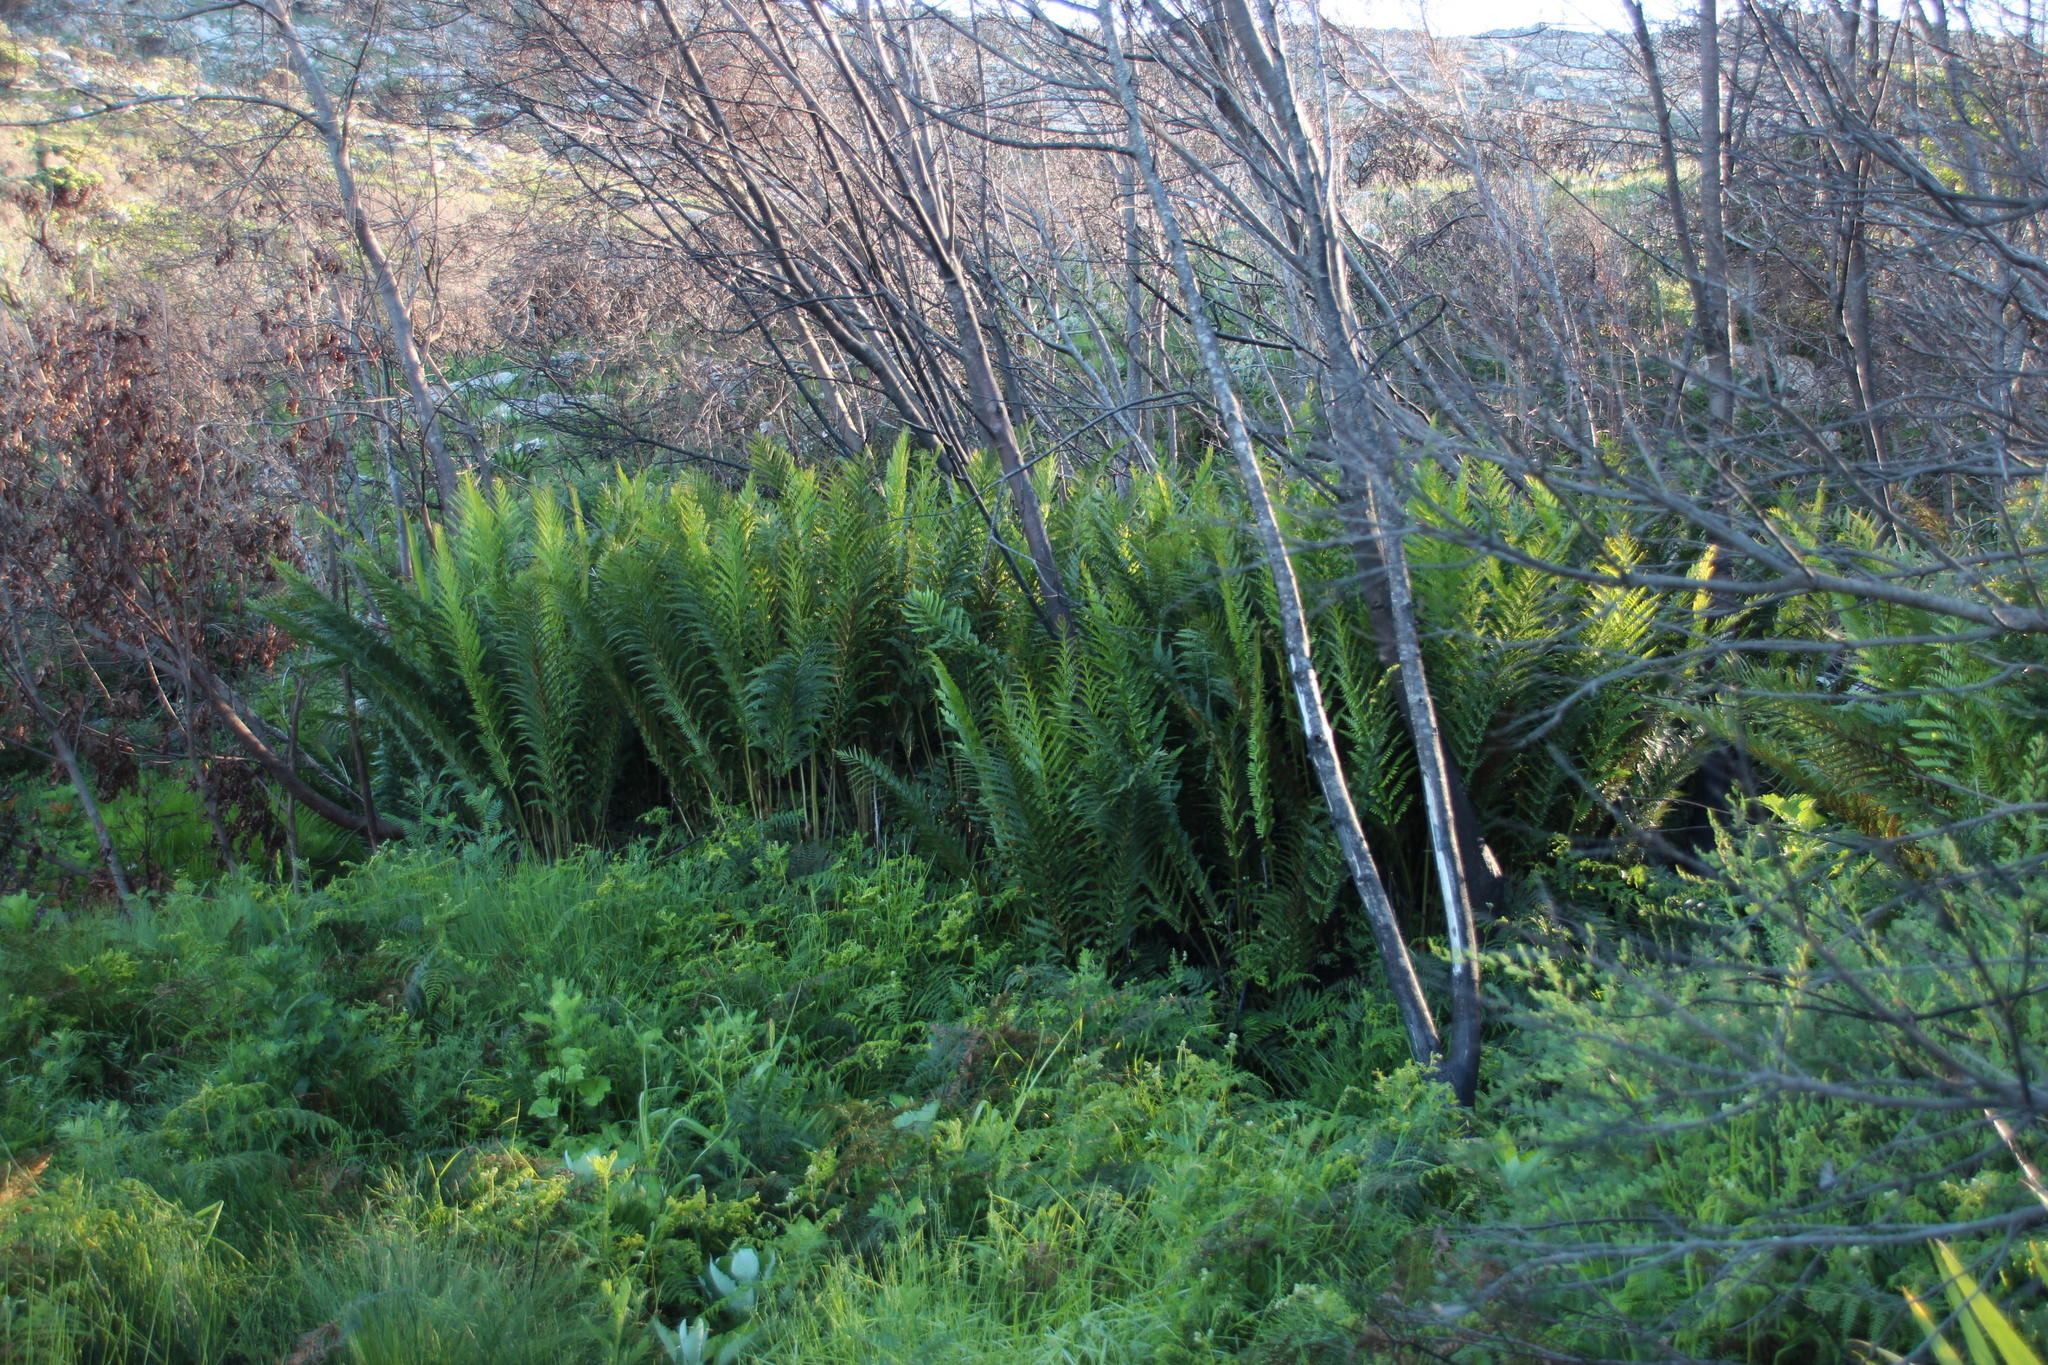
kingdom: Plantae
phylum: Tracheophyta
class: Polypodiopsida
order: Osmundales
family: Osmundaceae
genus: Todea
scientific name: Todea barbara
